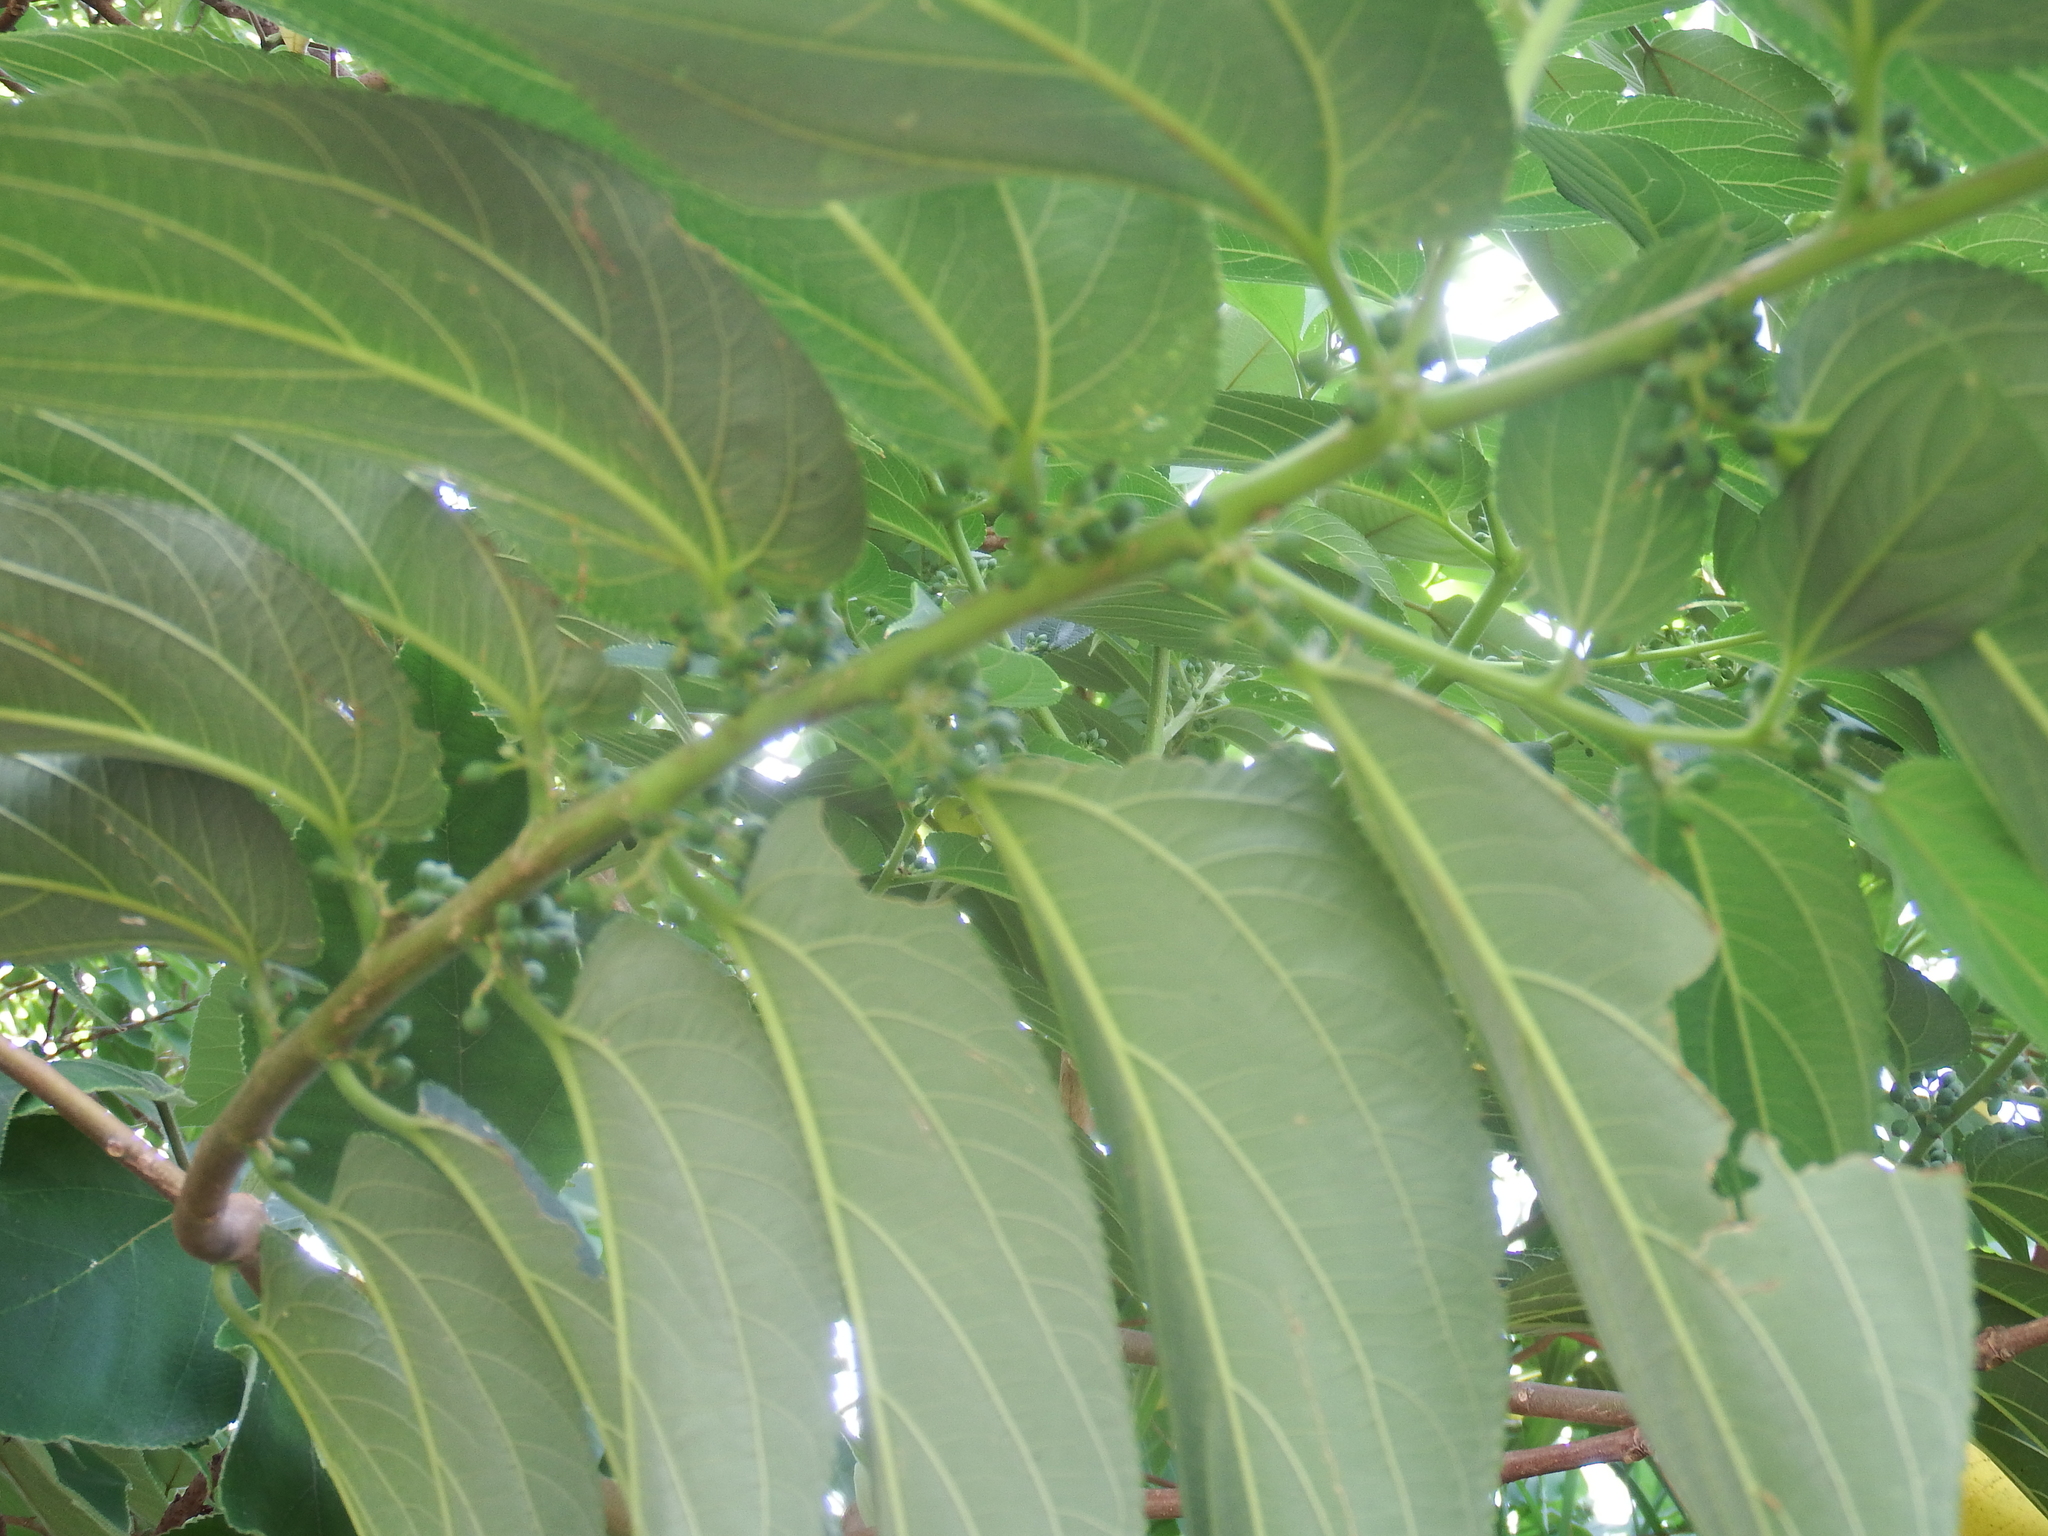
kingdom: Plantae
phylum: Tracheophyta
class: Magnoliopsida
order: Rosales
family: Cannabaceae
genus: Trema
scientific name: Trema orientale
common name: Indian charcoal tree
